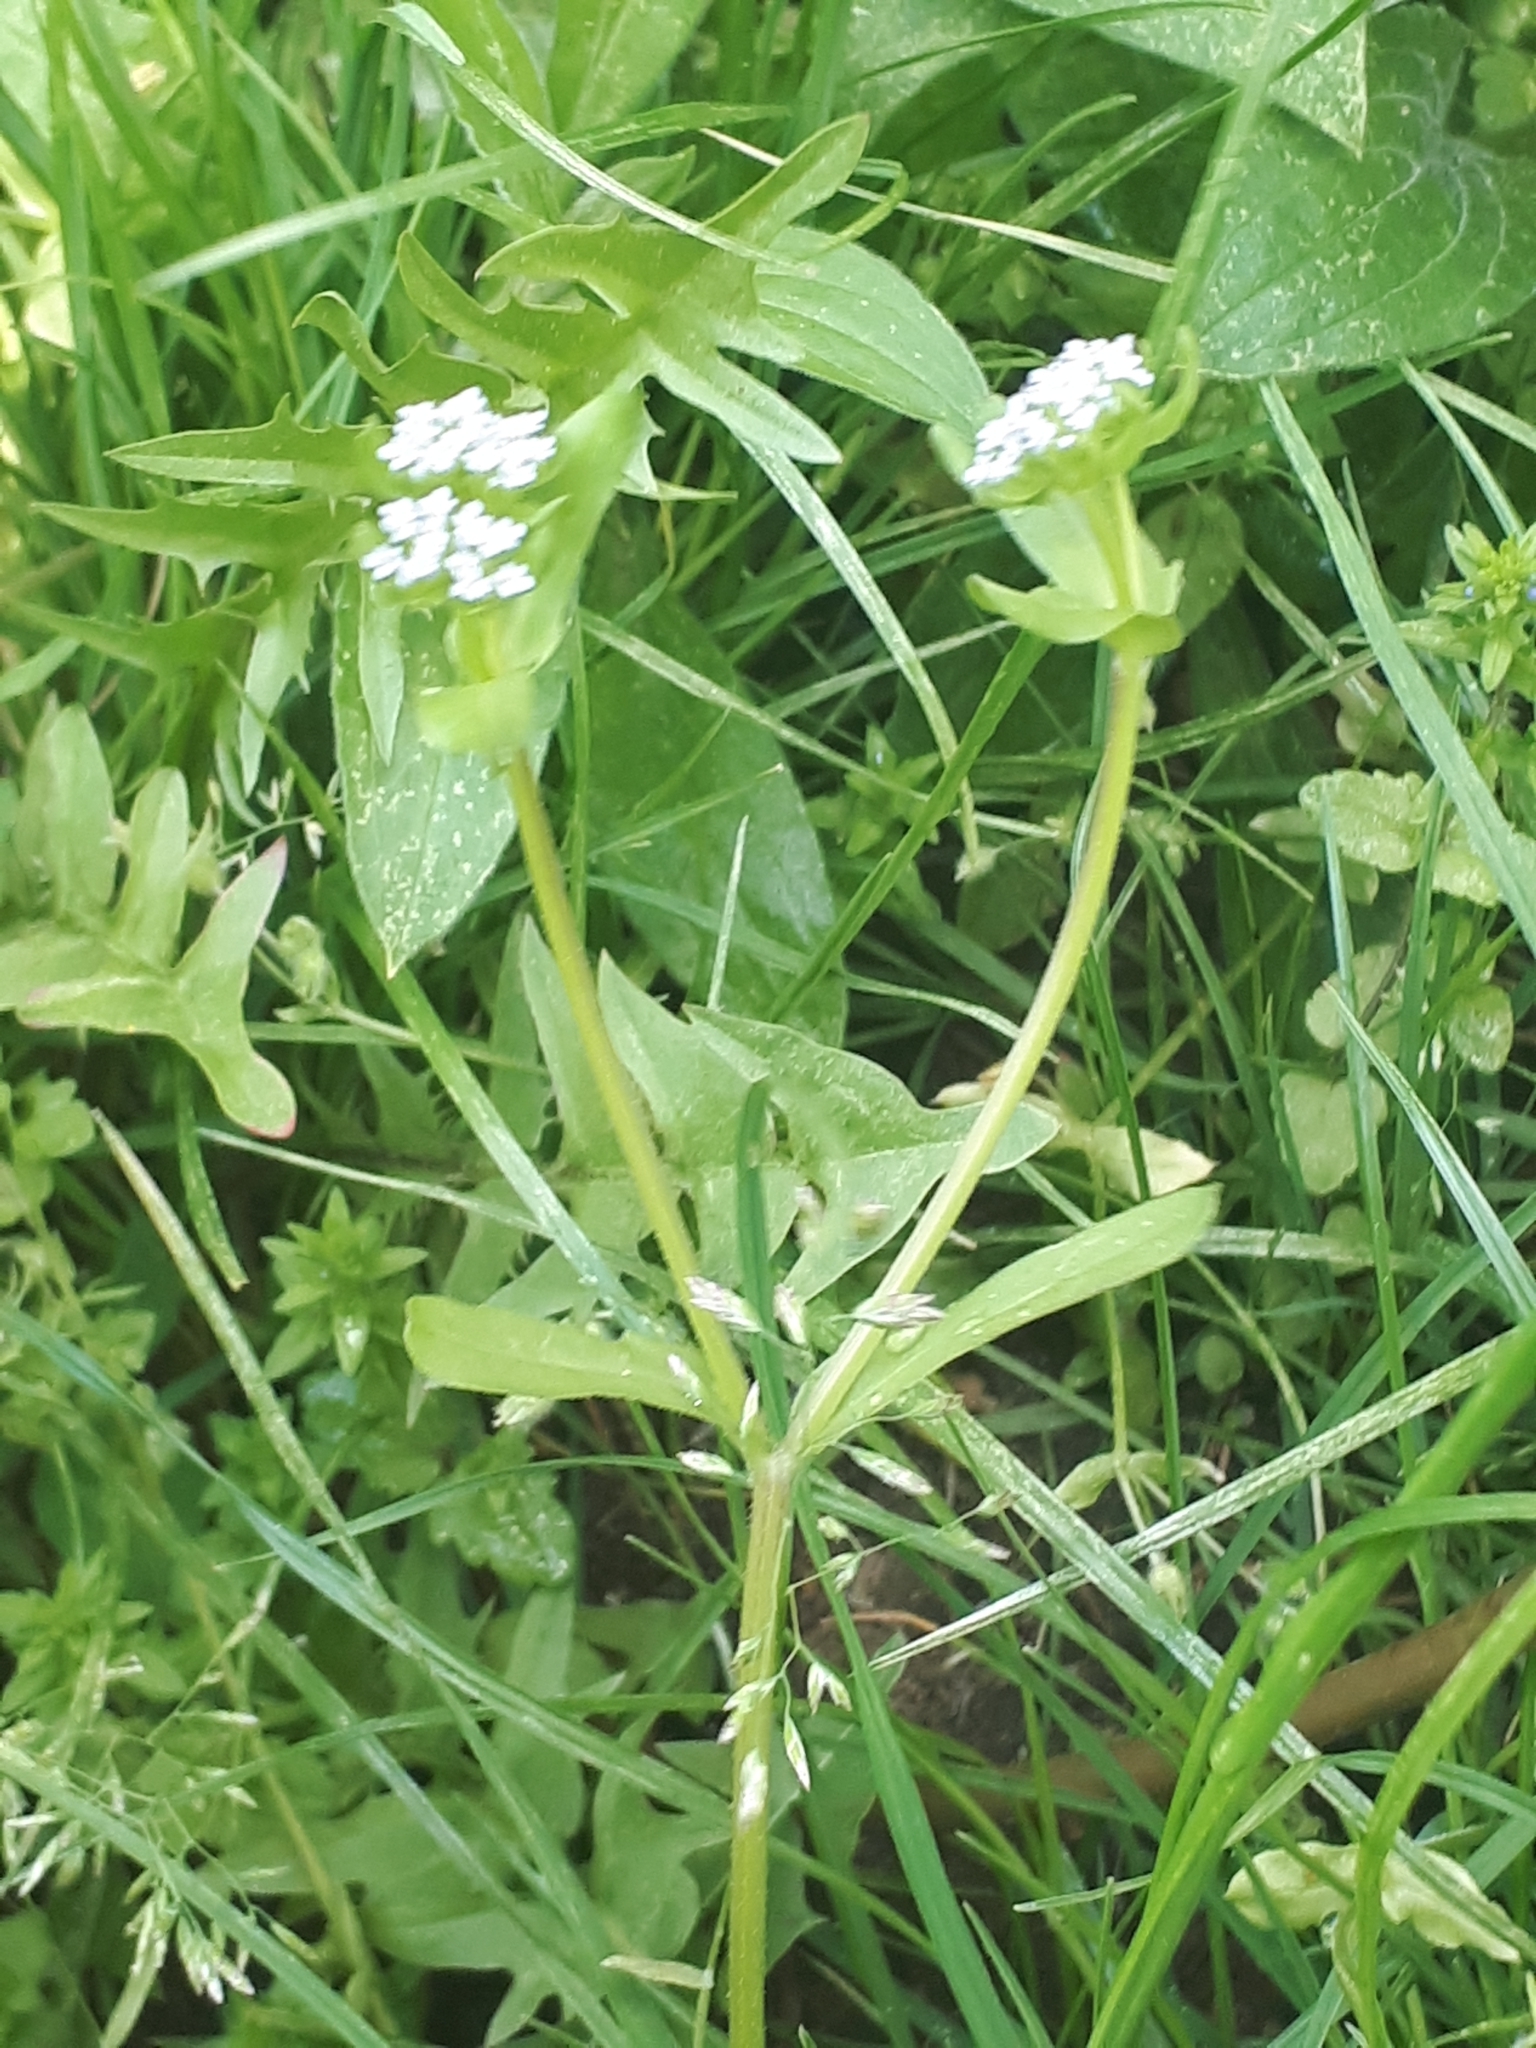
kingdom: Plantae
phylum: Tracheophyta
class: Magnoliopsida
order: Dipsacales
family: Caprifoliaceae
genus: Valerianella
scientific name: Valerianella locusta
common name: Common cornsalad
